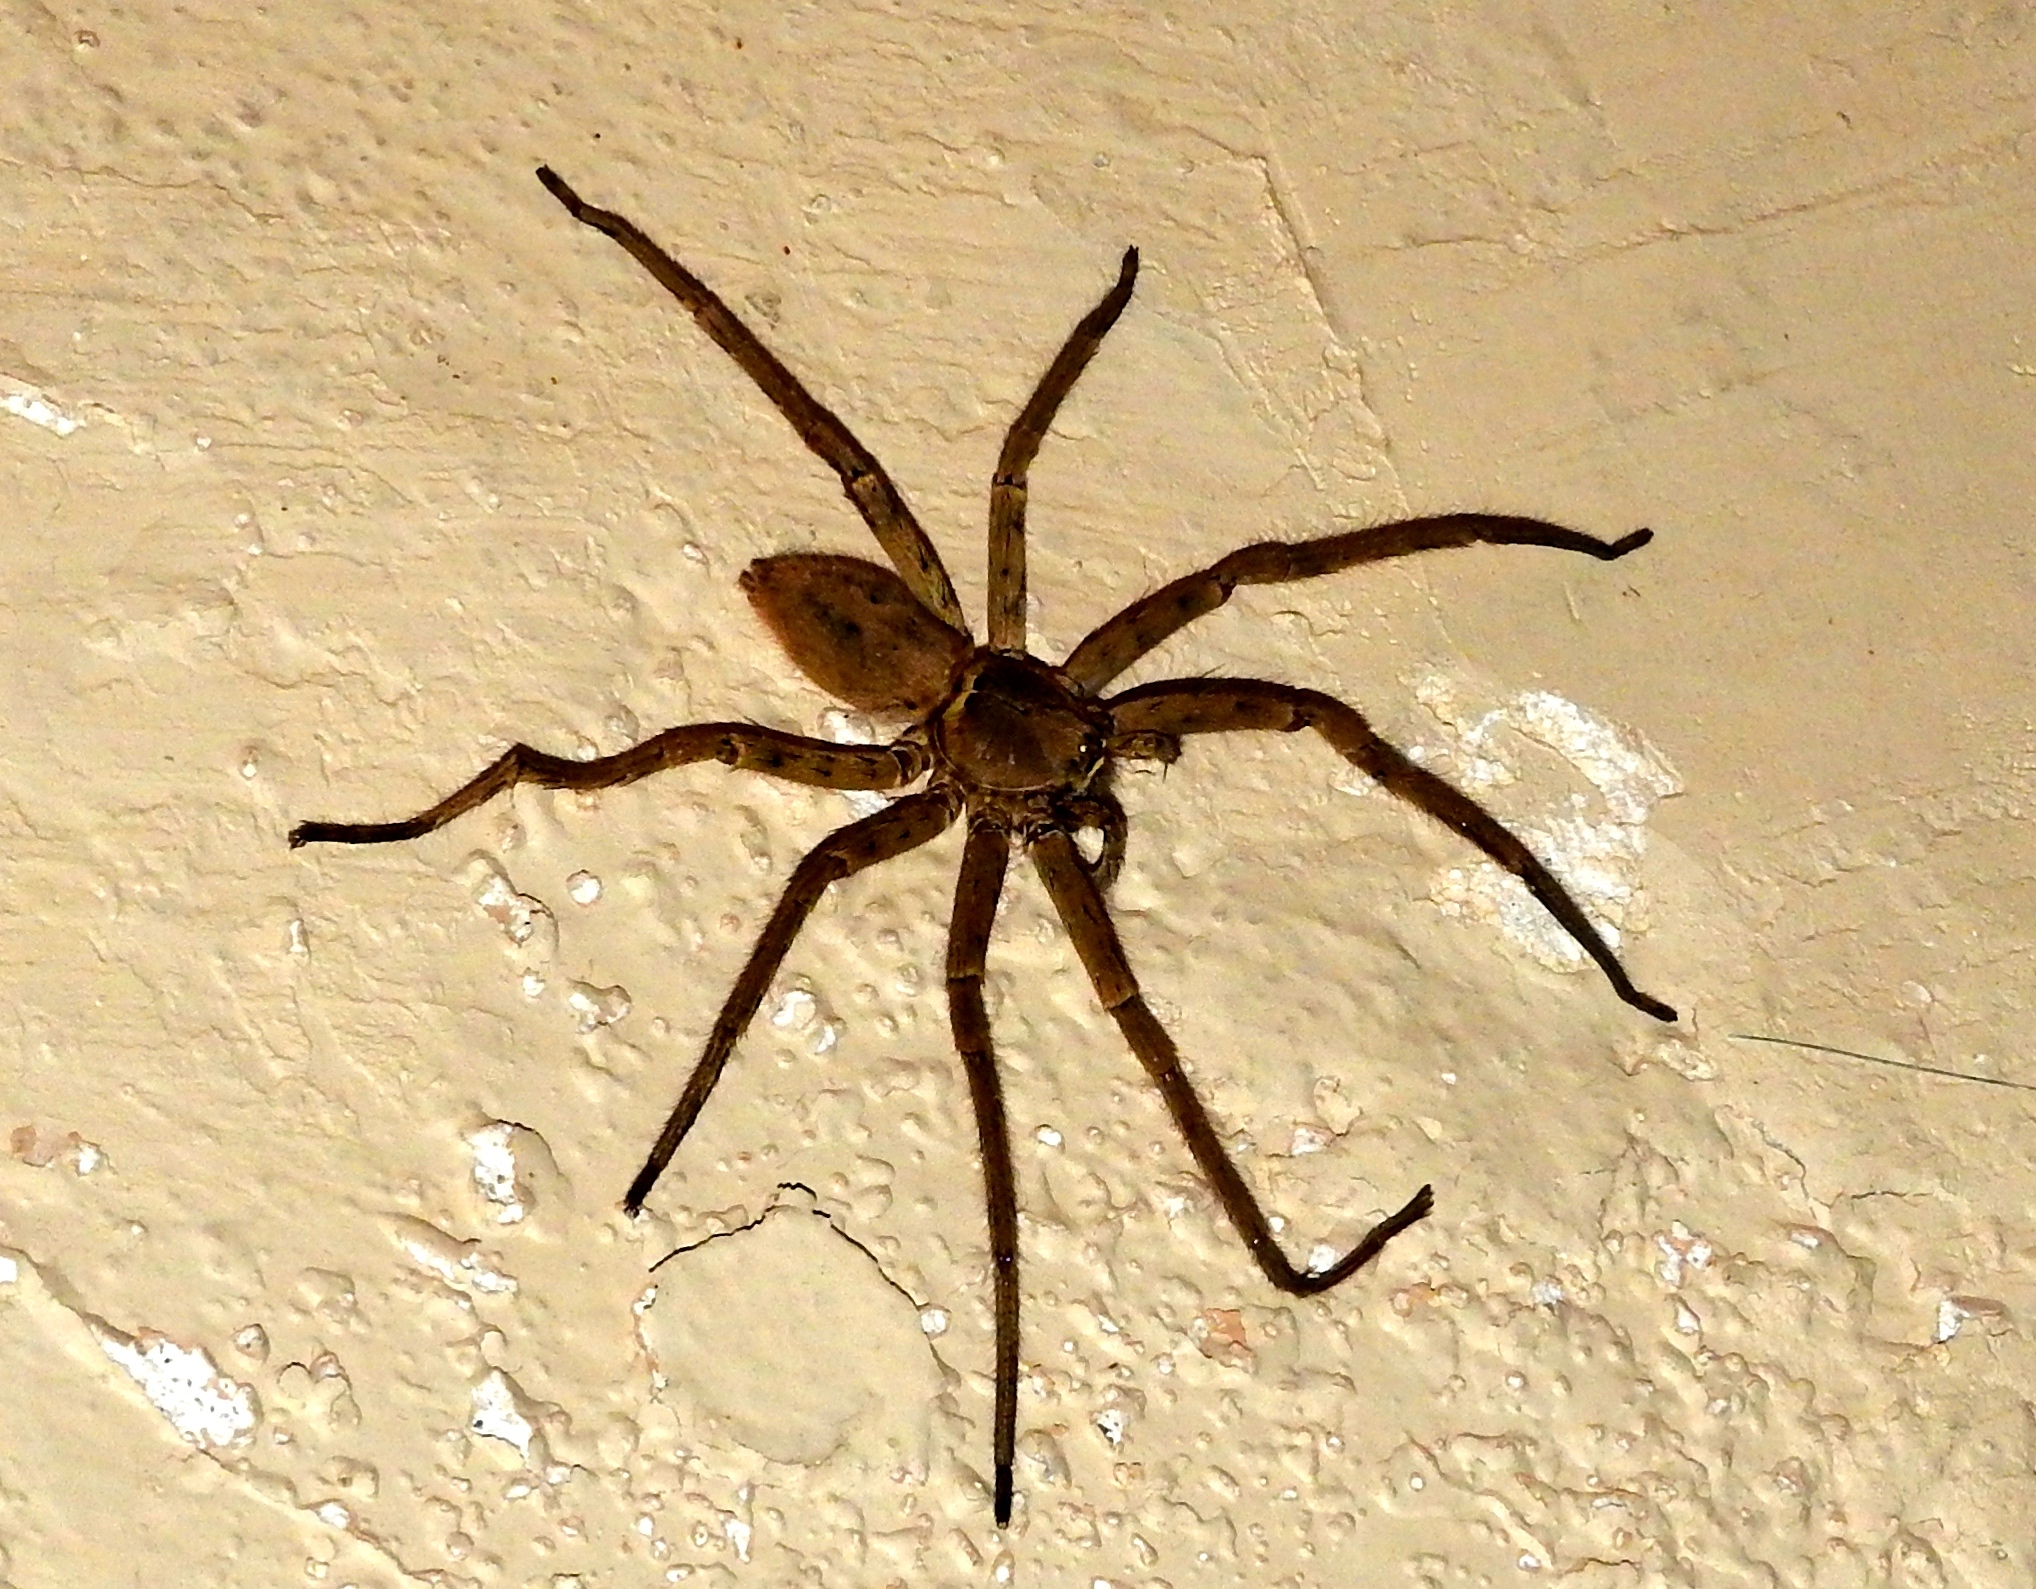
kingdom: Animalia
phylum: Arthropoda
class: Arachnida
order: Araneae
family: Sparassidae
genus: Heteropoda
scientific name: Heteropoda venatoria
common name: Huntsman spider
